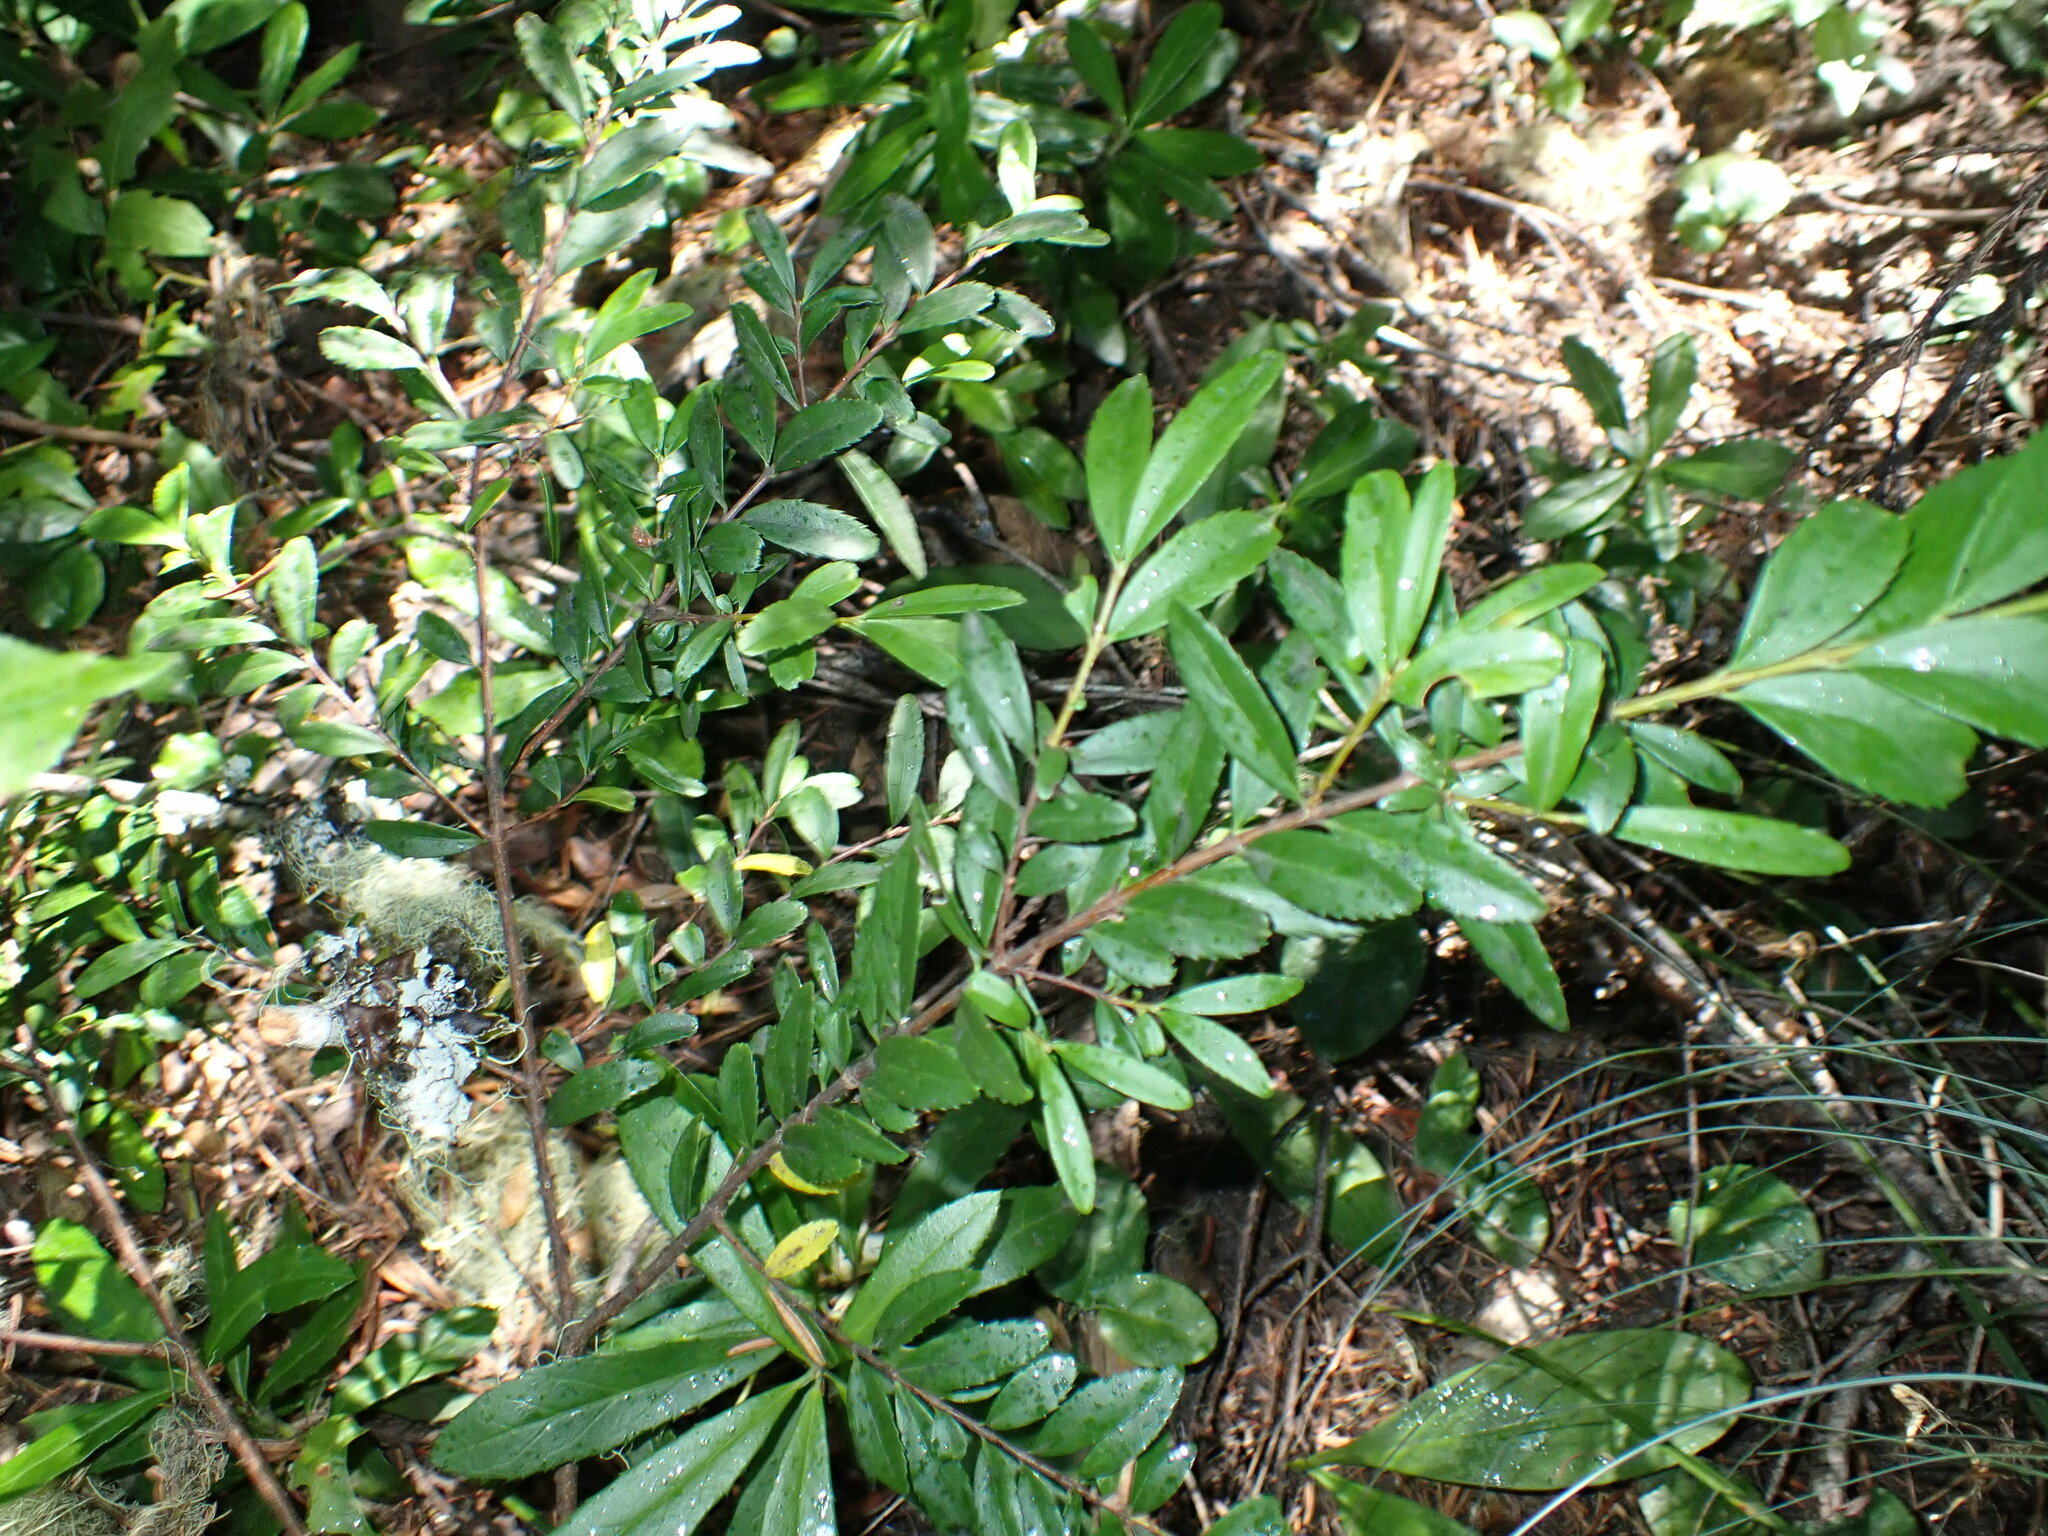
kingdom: Plantae
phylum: Tracheophyta
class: Magnoliopsida
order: Celastrales
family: Celastraceae
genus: Paxistima
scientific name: Paxistima myrsinites
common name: Mountain-lover
